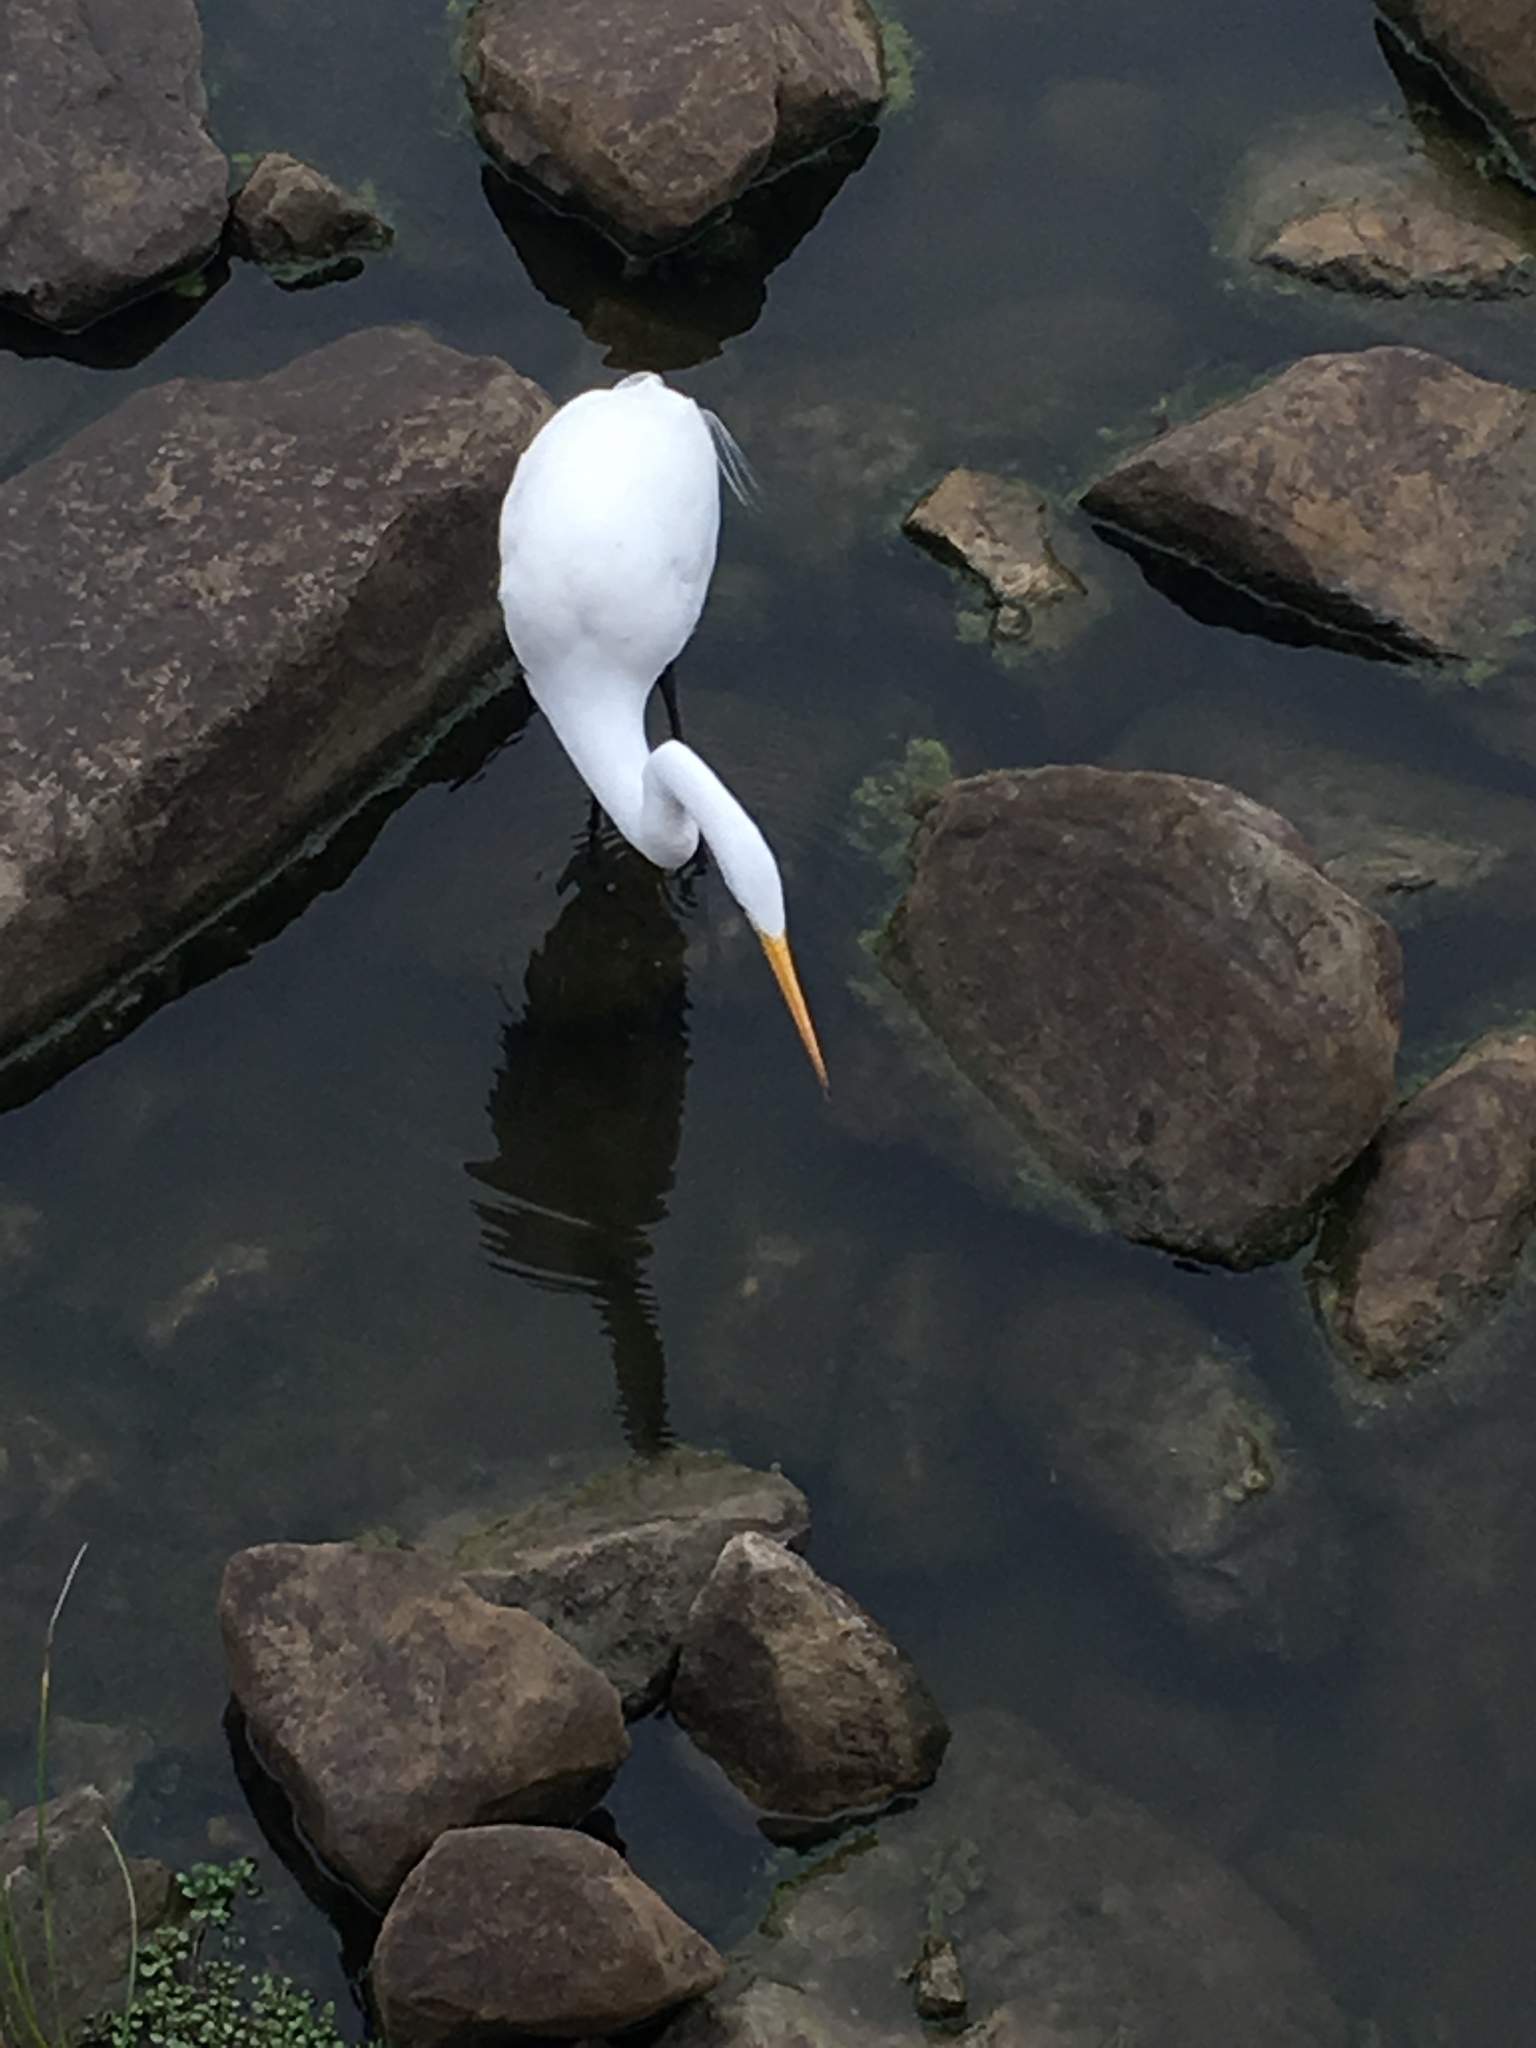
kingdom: Animalia
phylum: Chordata
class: Aves
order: Pelecaniformes
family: Ardeidae
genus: Ardea
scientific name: Ardea alba
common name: Great egret
